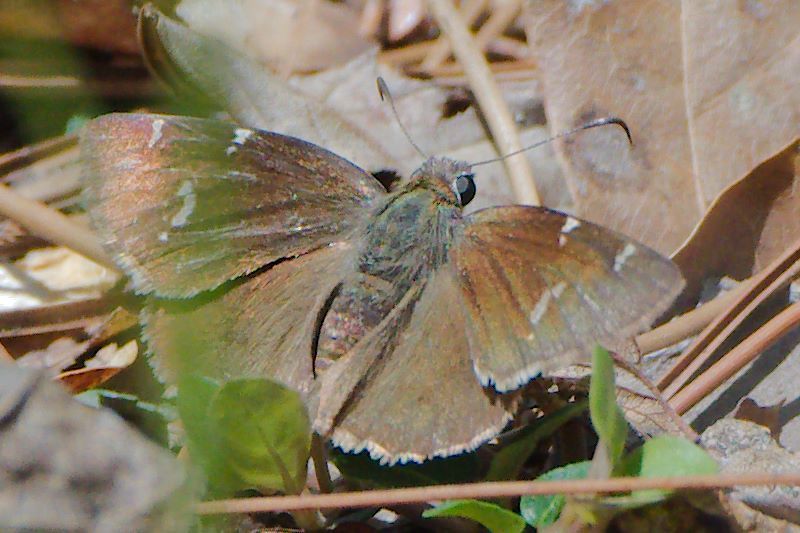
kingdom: Animalia
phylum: Arthropoda
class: Insecta
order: Lepidoptera
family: Hesperiidae
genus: Thorybes
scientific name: Thorybes daunus
